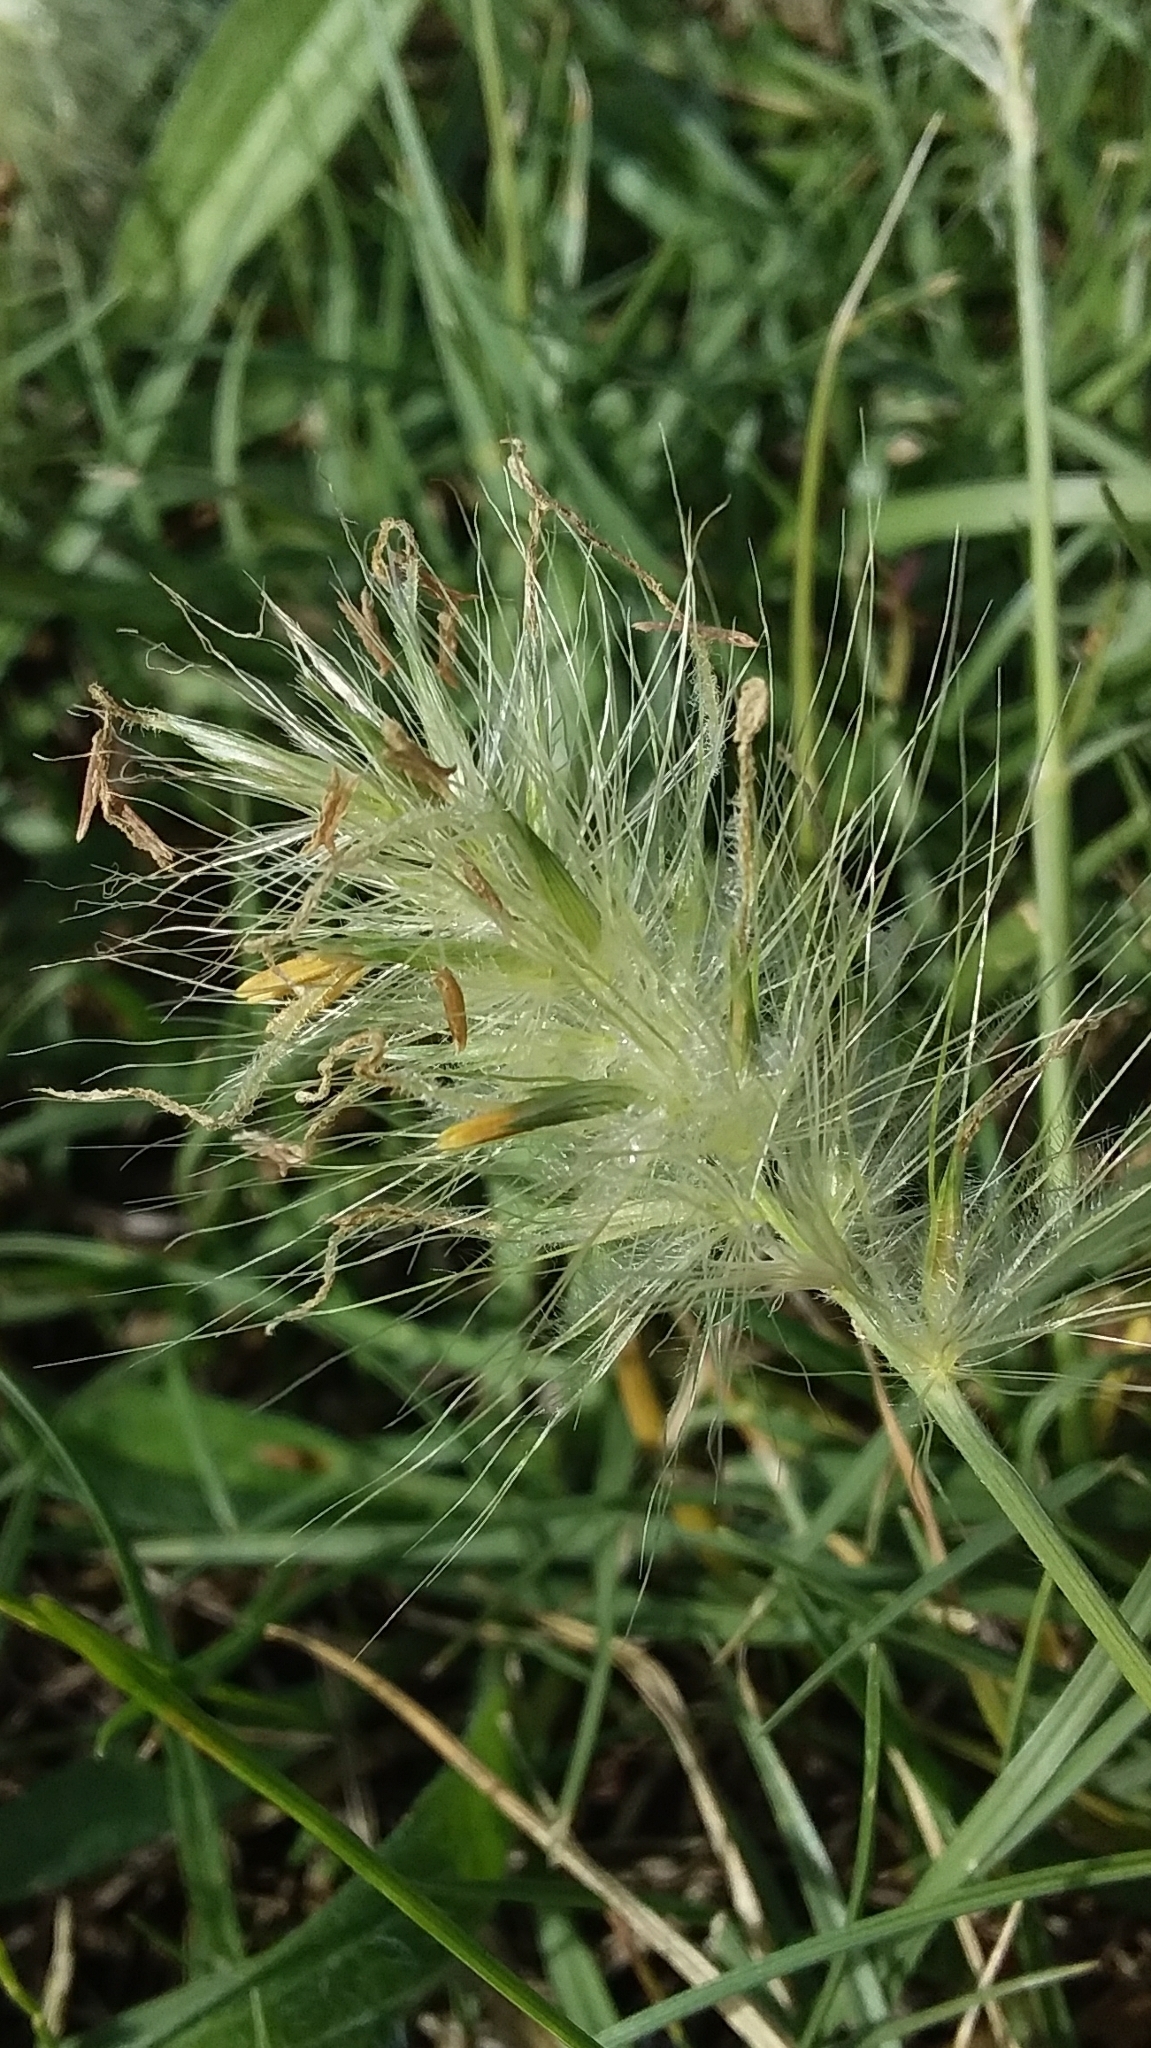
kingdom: Plantae
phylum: Tracheophyta
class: Liliopsida
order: Poales
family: Poaceae
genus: Cenchrus
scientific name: Cenchrus longisetus
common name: Feathertop
